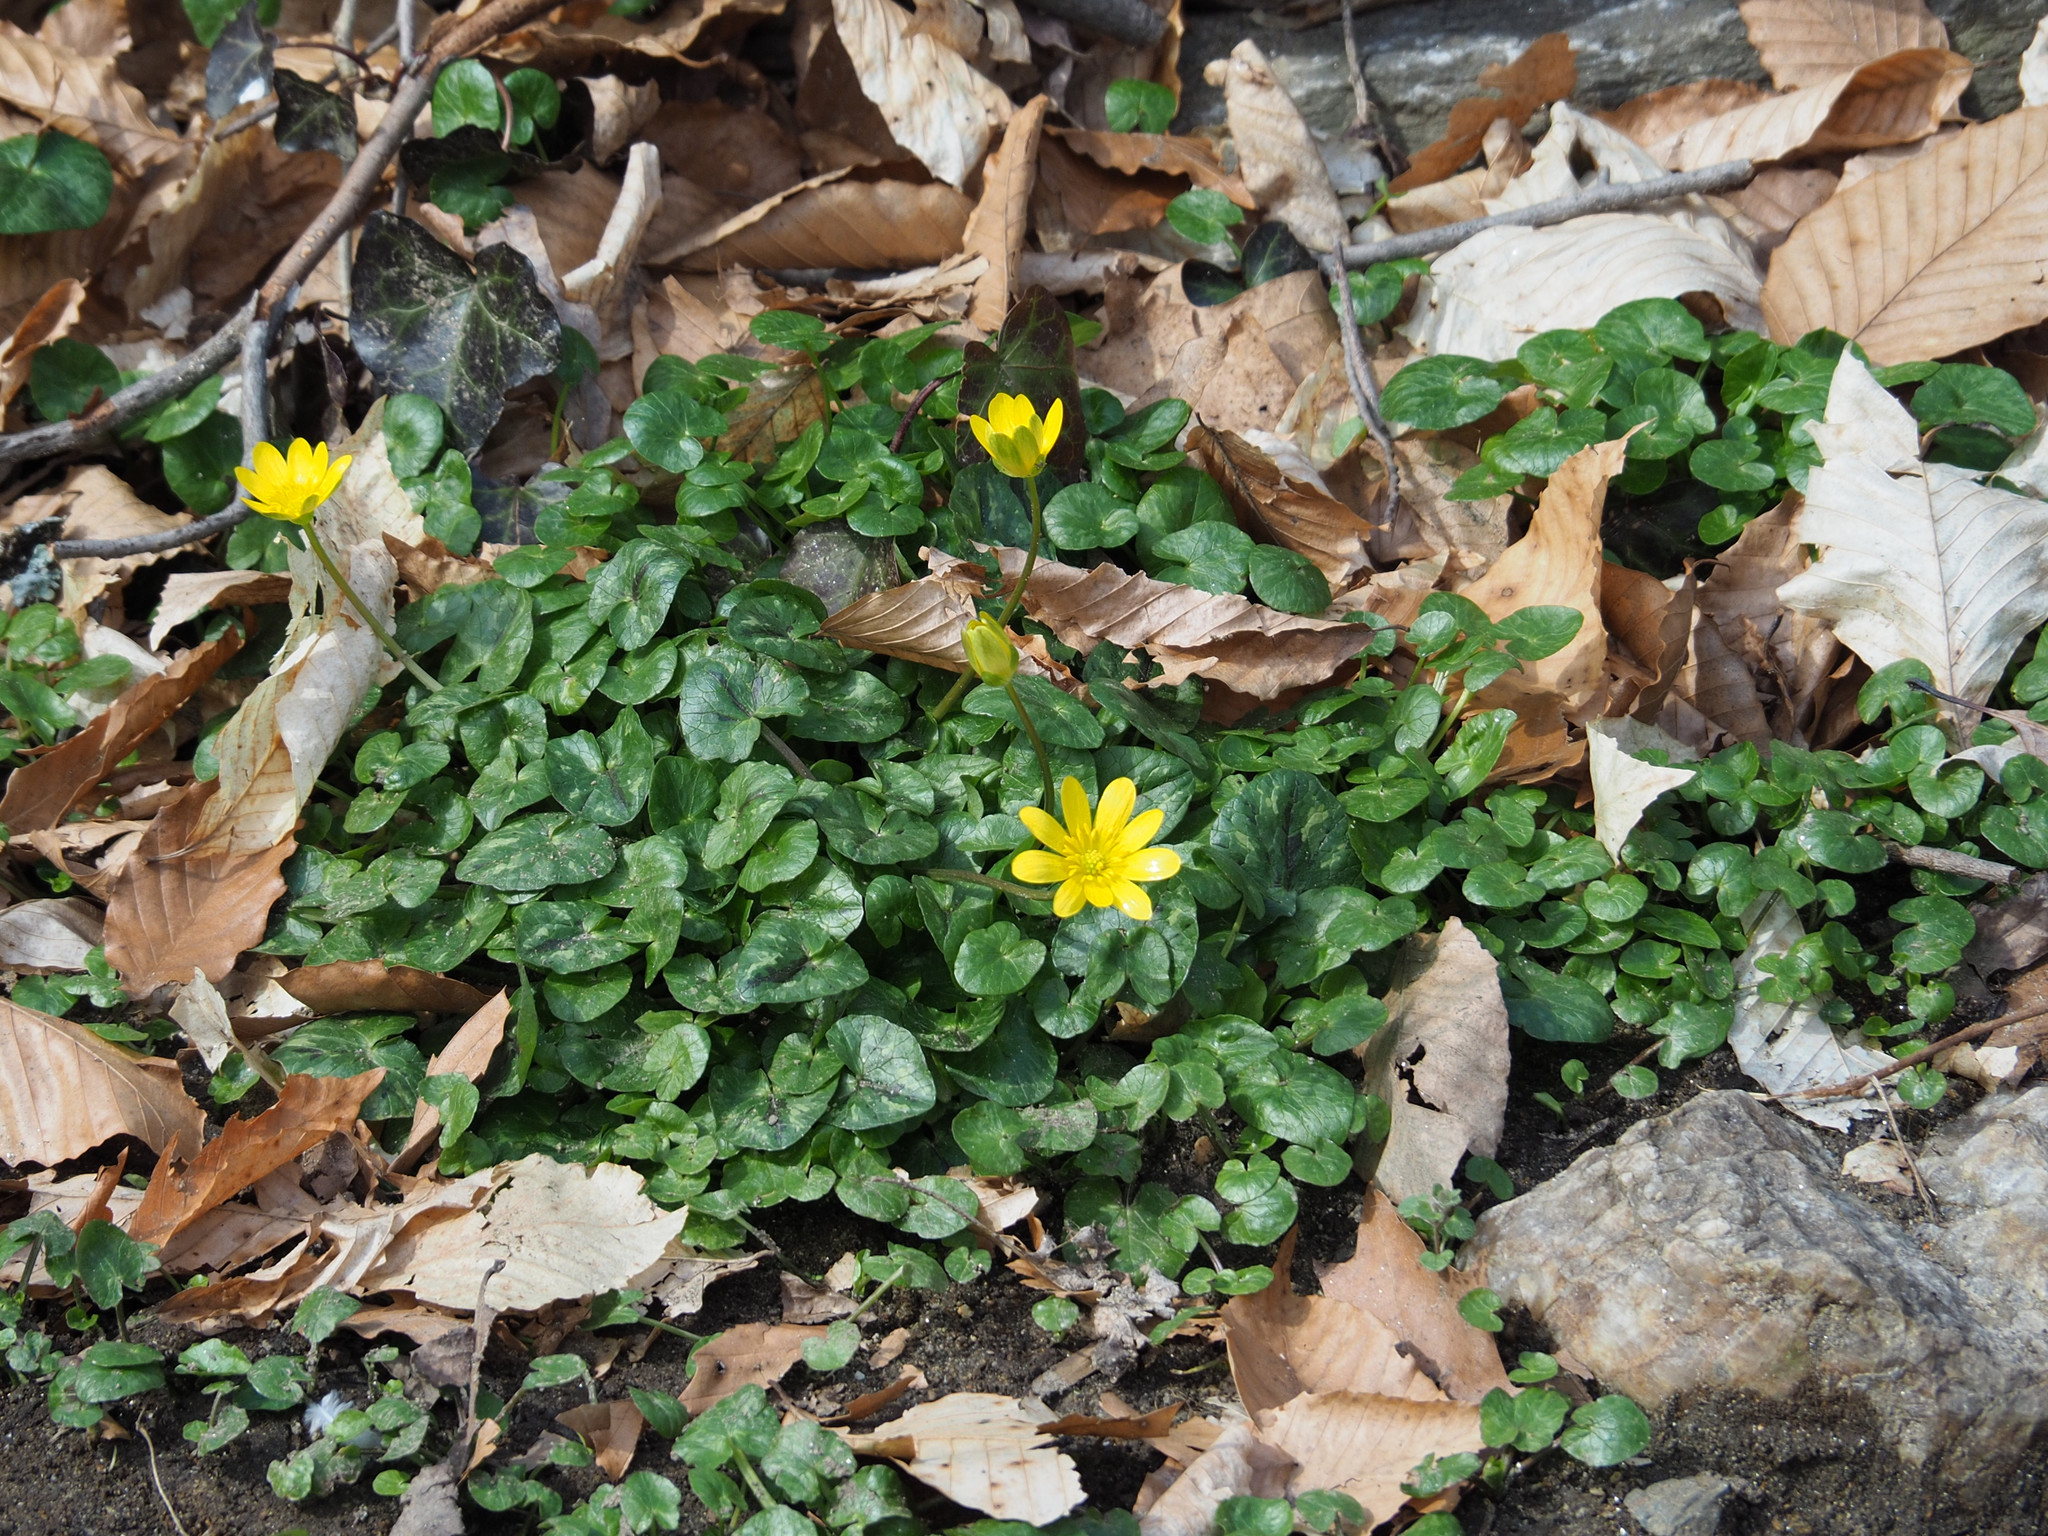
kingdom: Plantae
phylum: Tracheophyta
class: Magnoliopsida
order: Ranunculales
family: Ranunculaceae
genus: Ficaria
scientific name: Ficaria verna
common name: Lesser celandine
